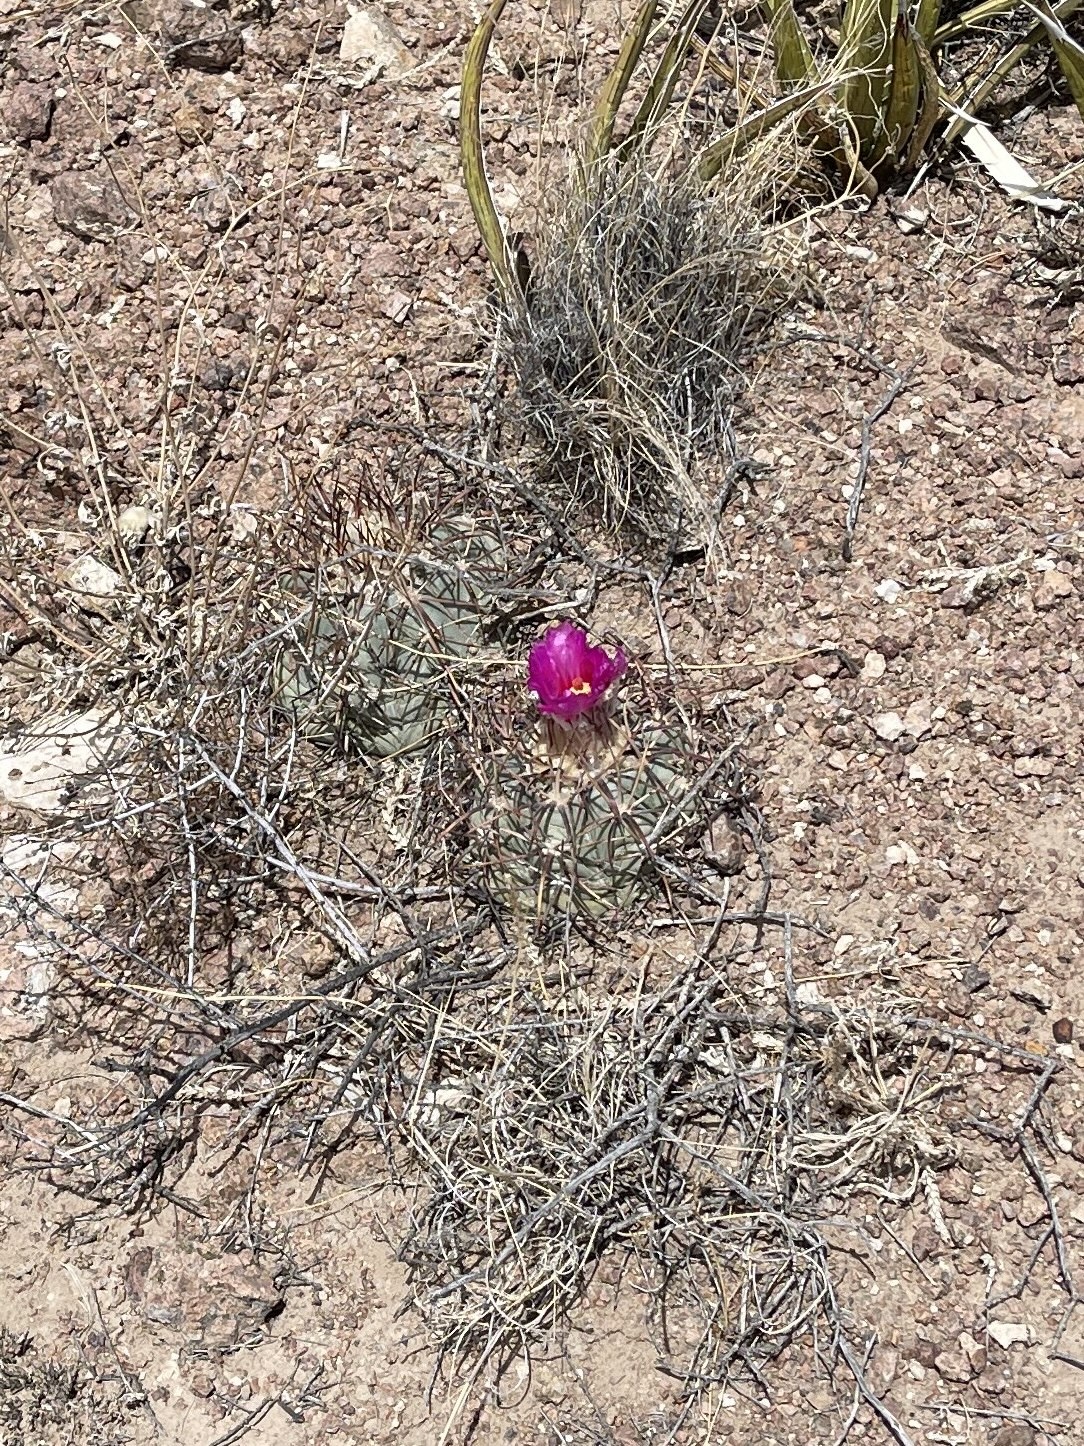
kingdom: Plantae
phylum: Tracheophyta
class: Magnoliopsida
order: Caryophyllales
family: Cactaceae
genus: Echinocactus
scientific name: Echinocactus horizonthalonius
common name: Devilshead
